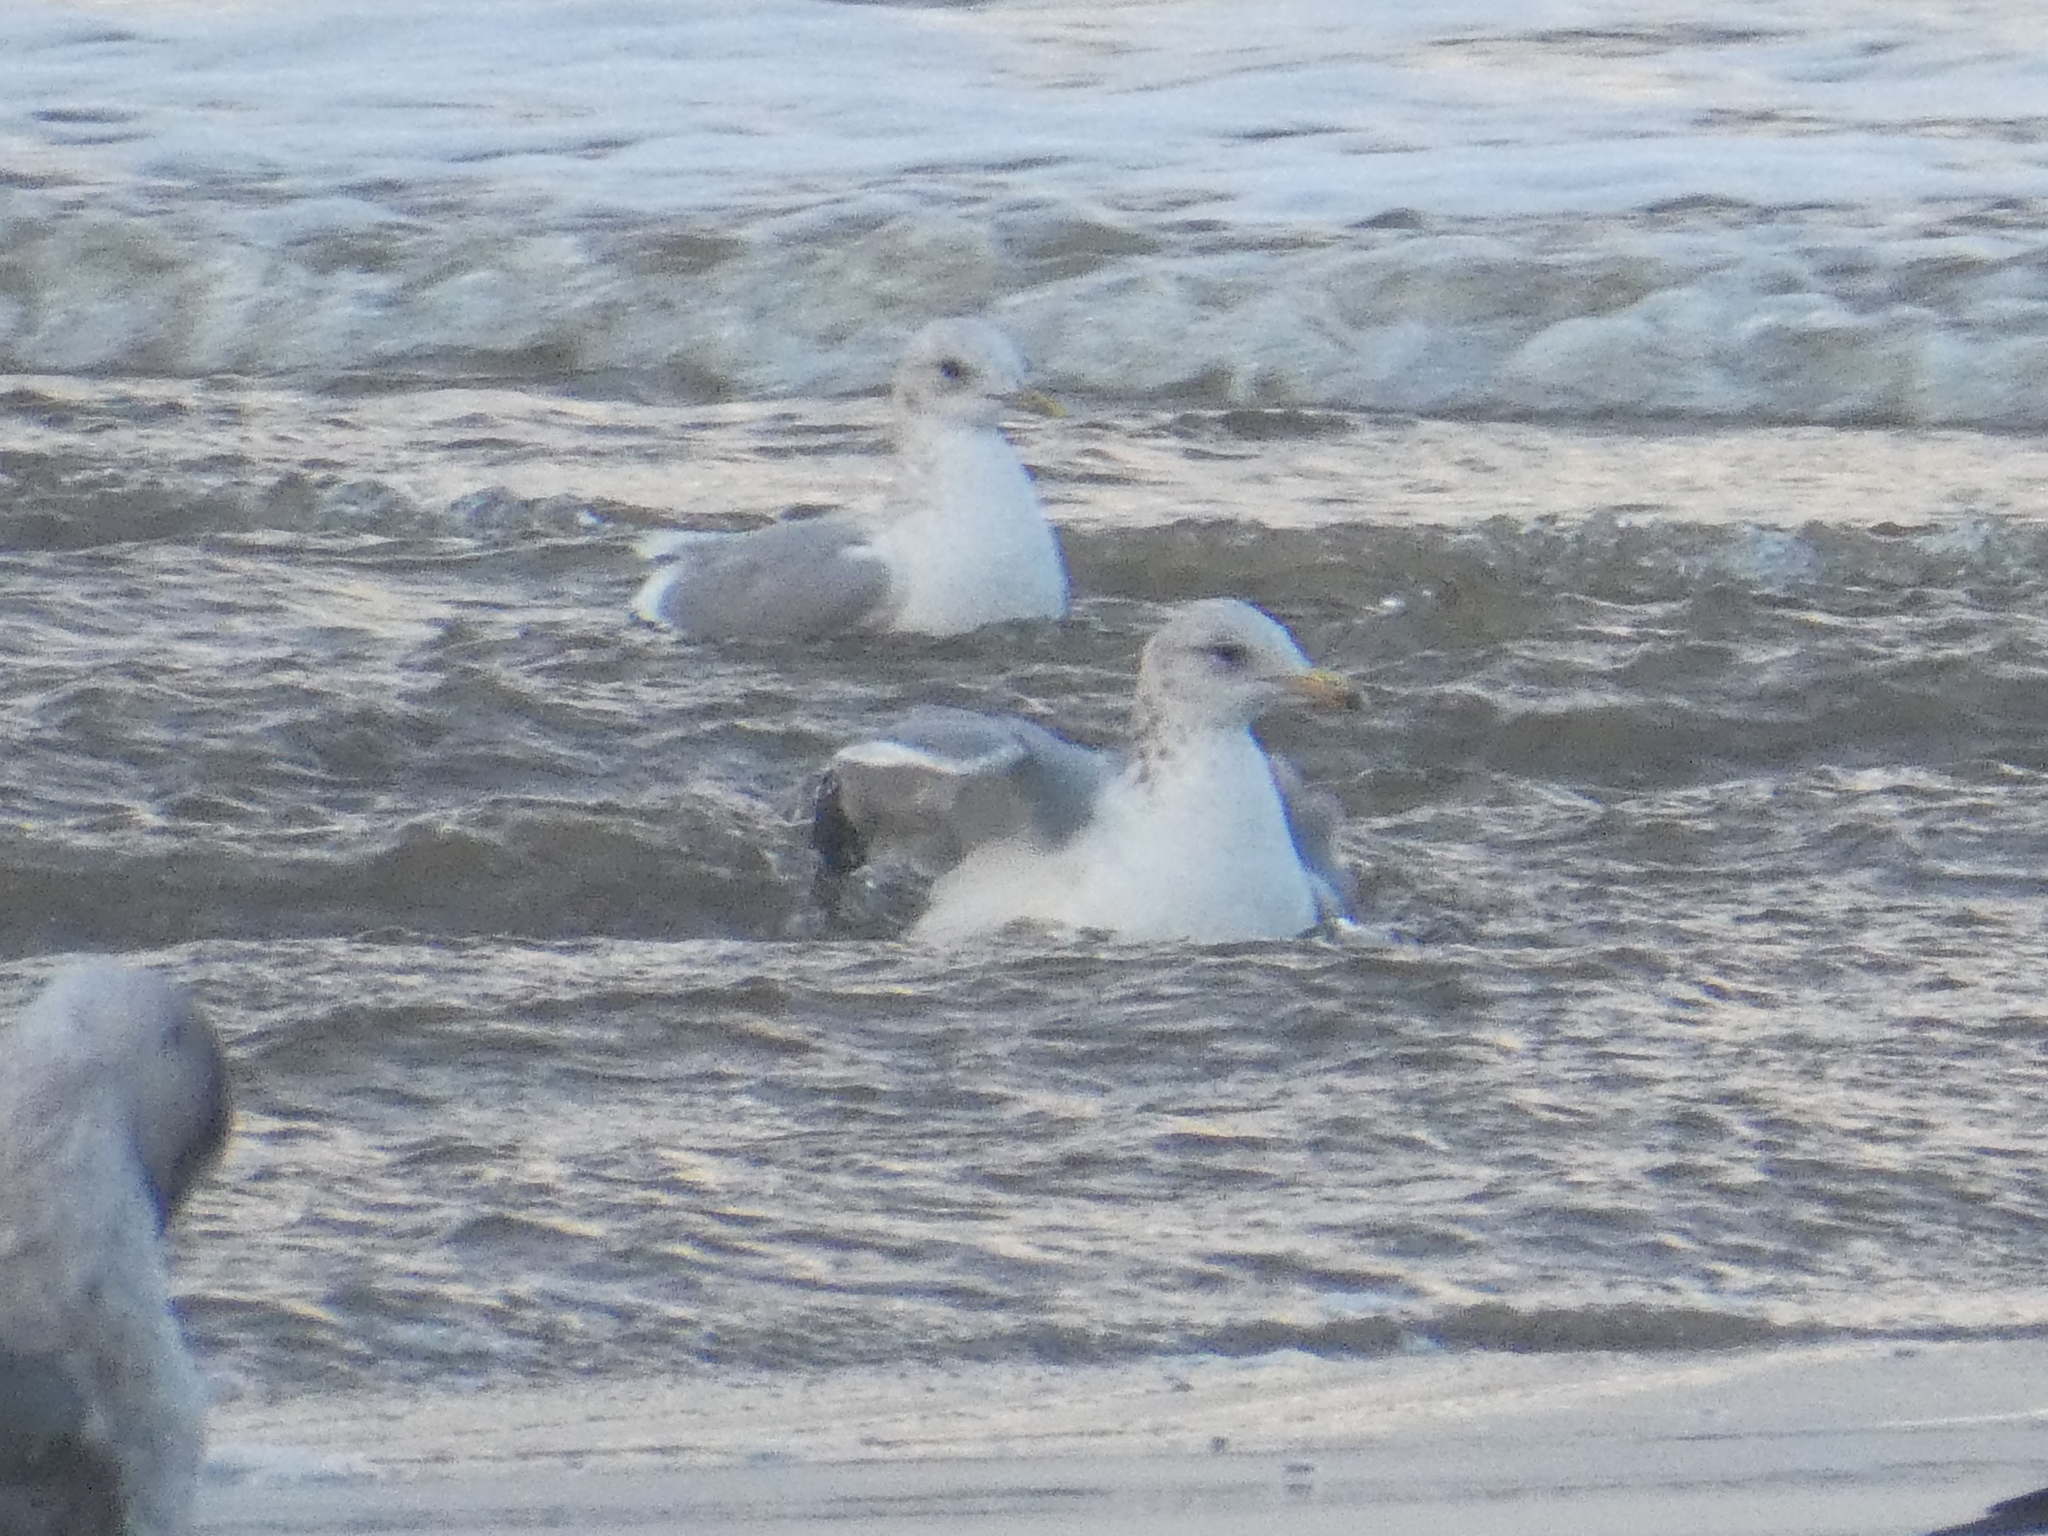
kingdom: Animalia
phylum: Chordata
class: Aves
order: Charadriiformes
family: Laridae
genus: Larus
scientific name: Larus brachyrhynchus
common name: Short-billed gull
